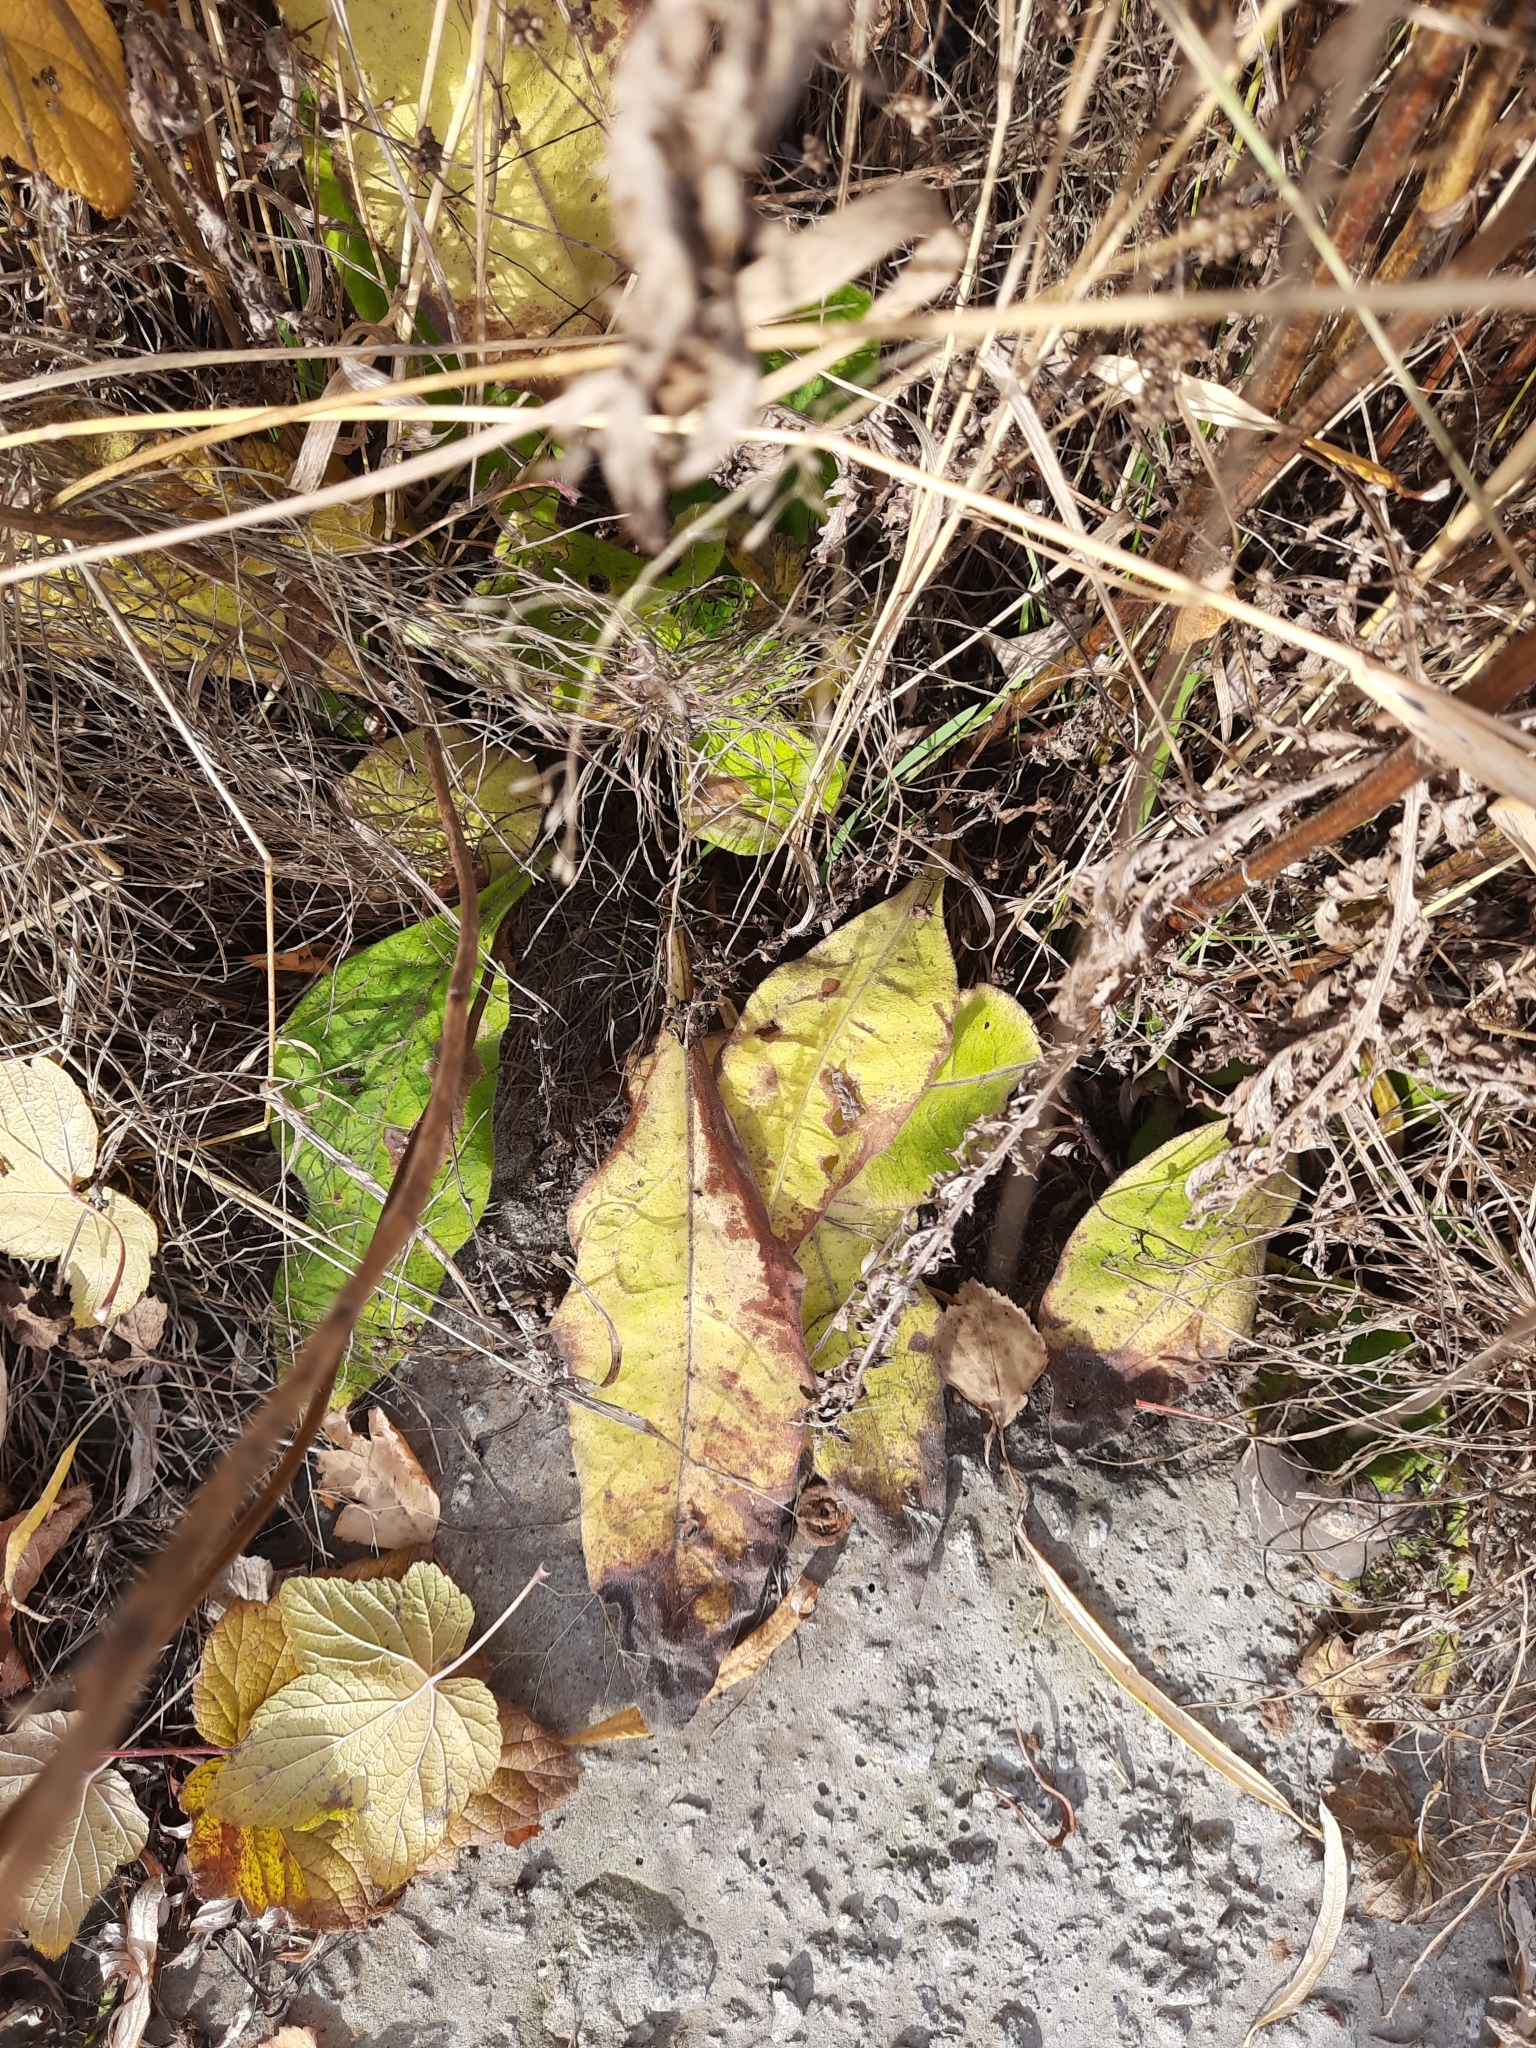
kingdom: Plantae
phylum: Tracheophyta
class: Magnoliopsida
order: Boraginales
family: Boraginaceae
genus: Pulmonaria
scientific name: Pulmonaria mollis
